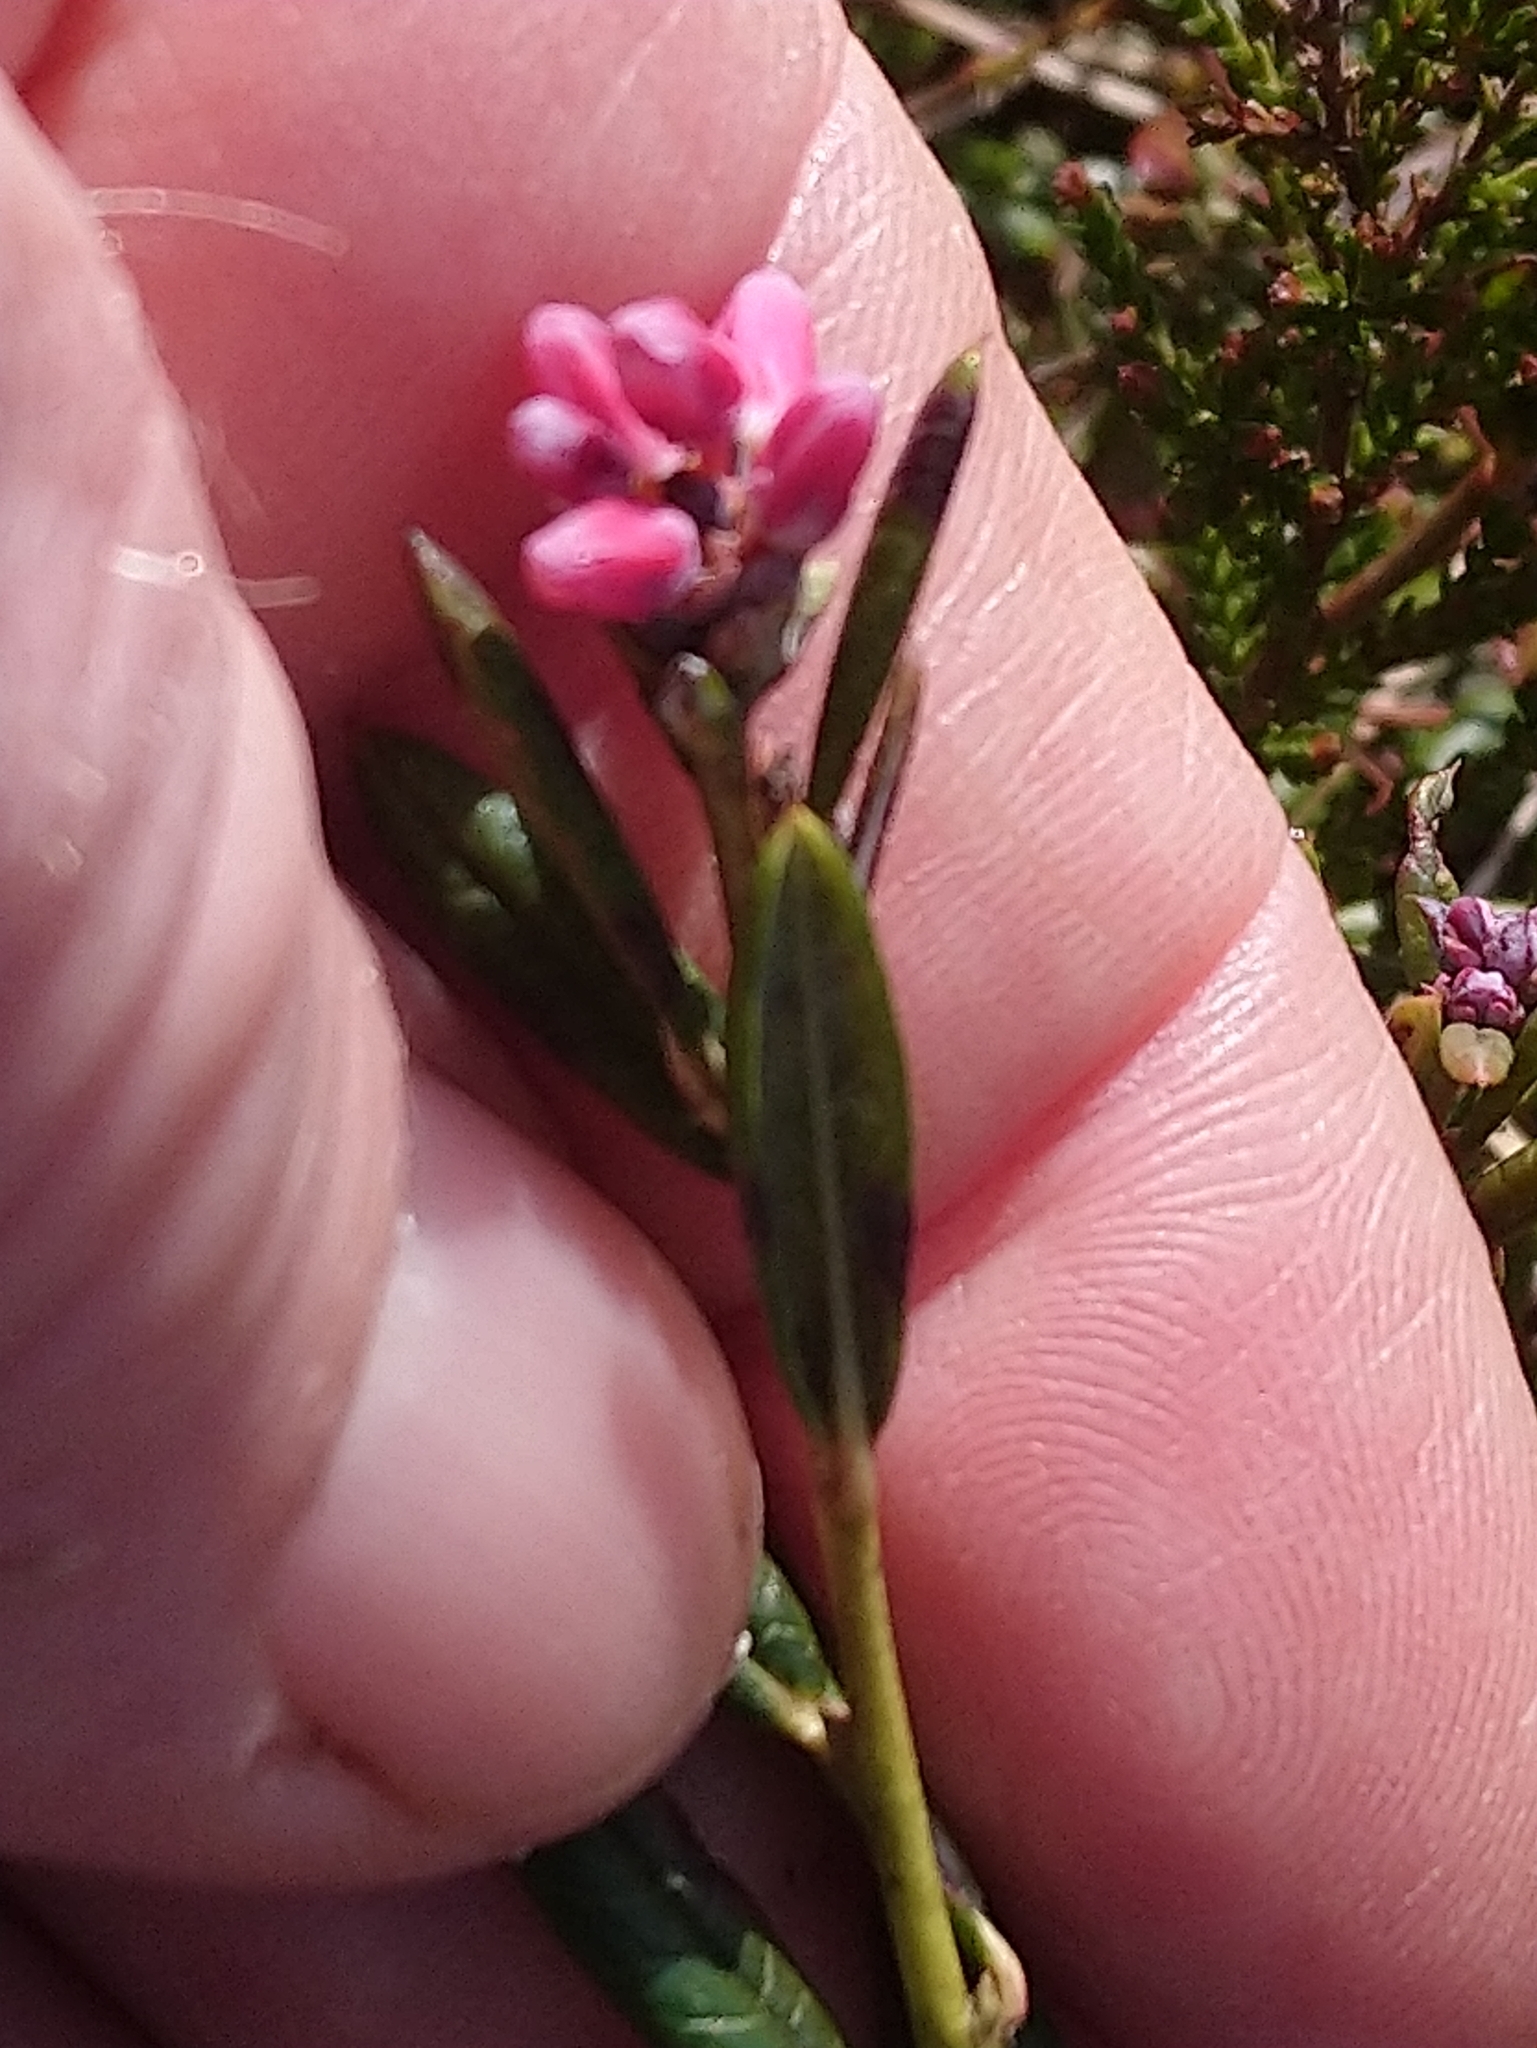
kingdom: Plantae
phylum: Tracheophyta
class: Magnoliopsida
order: Ericales
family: Ericaceae
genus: Andromeda
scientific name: Andromeda polifolia
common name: Bog-rosemary
